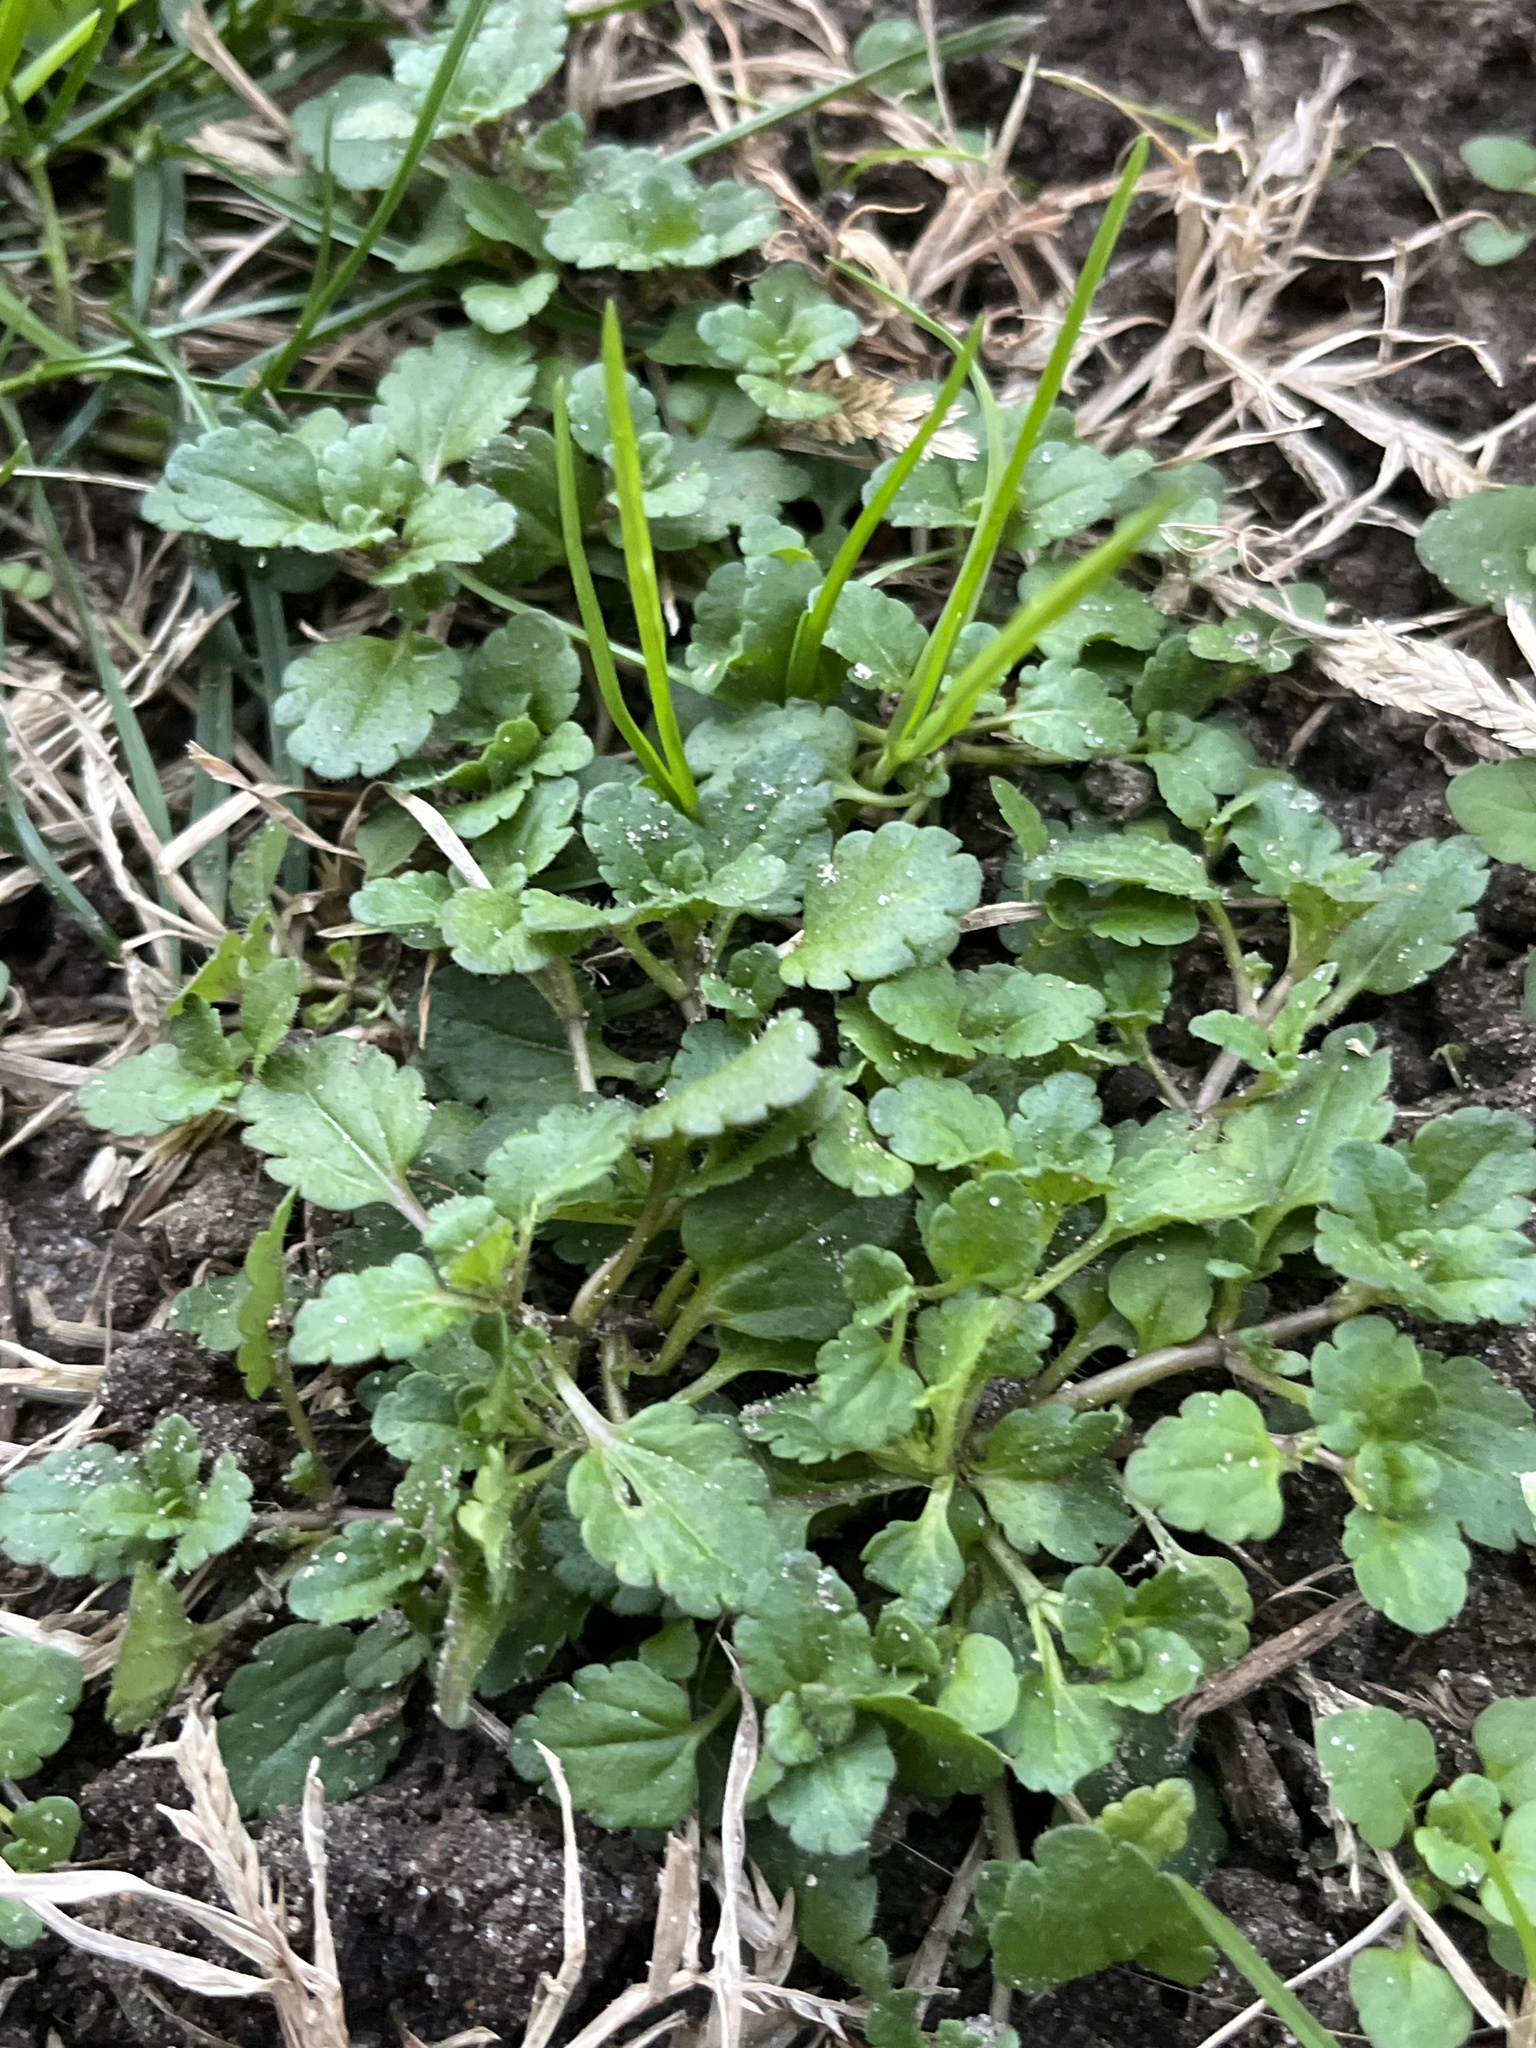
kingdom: Plantae
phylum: Tracheophyta
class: Magnoliopsida
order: Lamiales
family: Plantaginaceae
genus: Veronica
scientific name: Veronica persica
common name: Common field-speedwell
